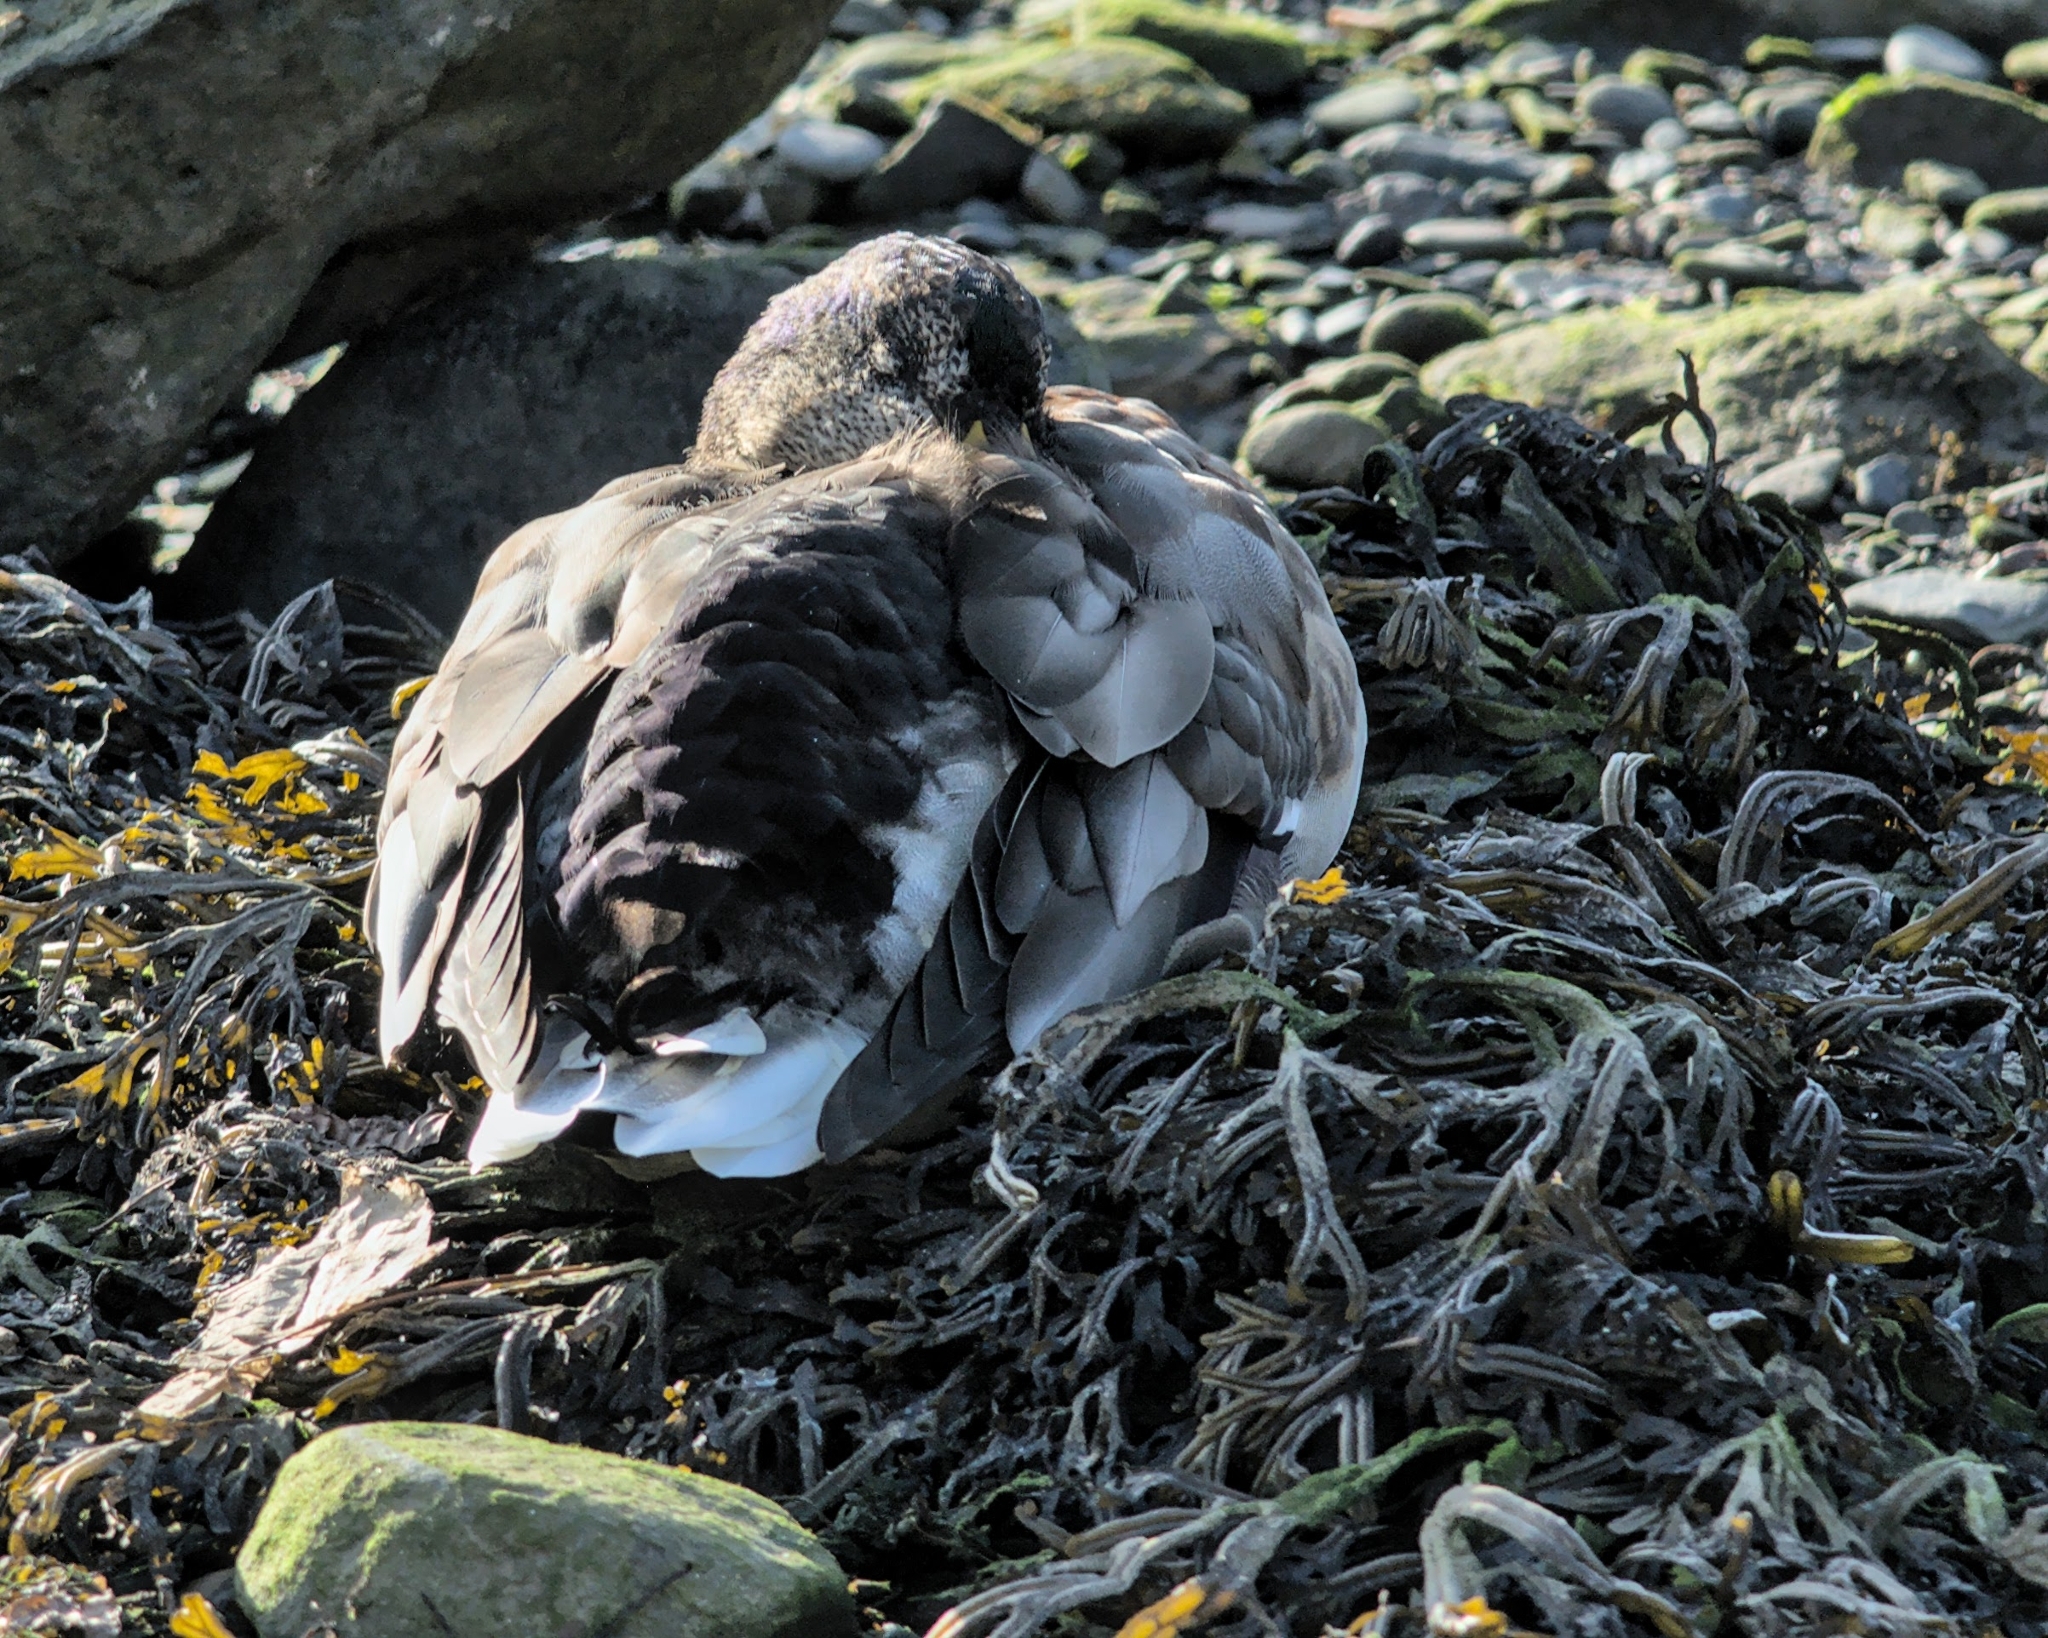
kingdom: Animalia
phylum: Chordata
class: Aves
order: Anseriformes
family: Anatidae
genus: Anas
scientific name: Anas platyrhynchos
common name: Mallard
